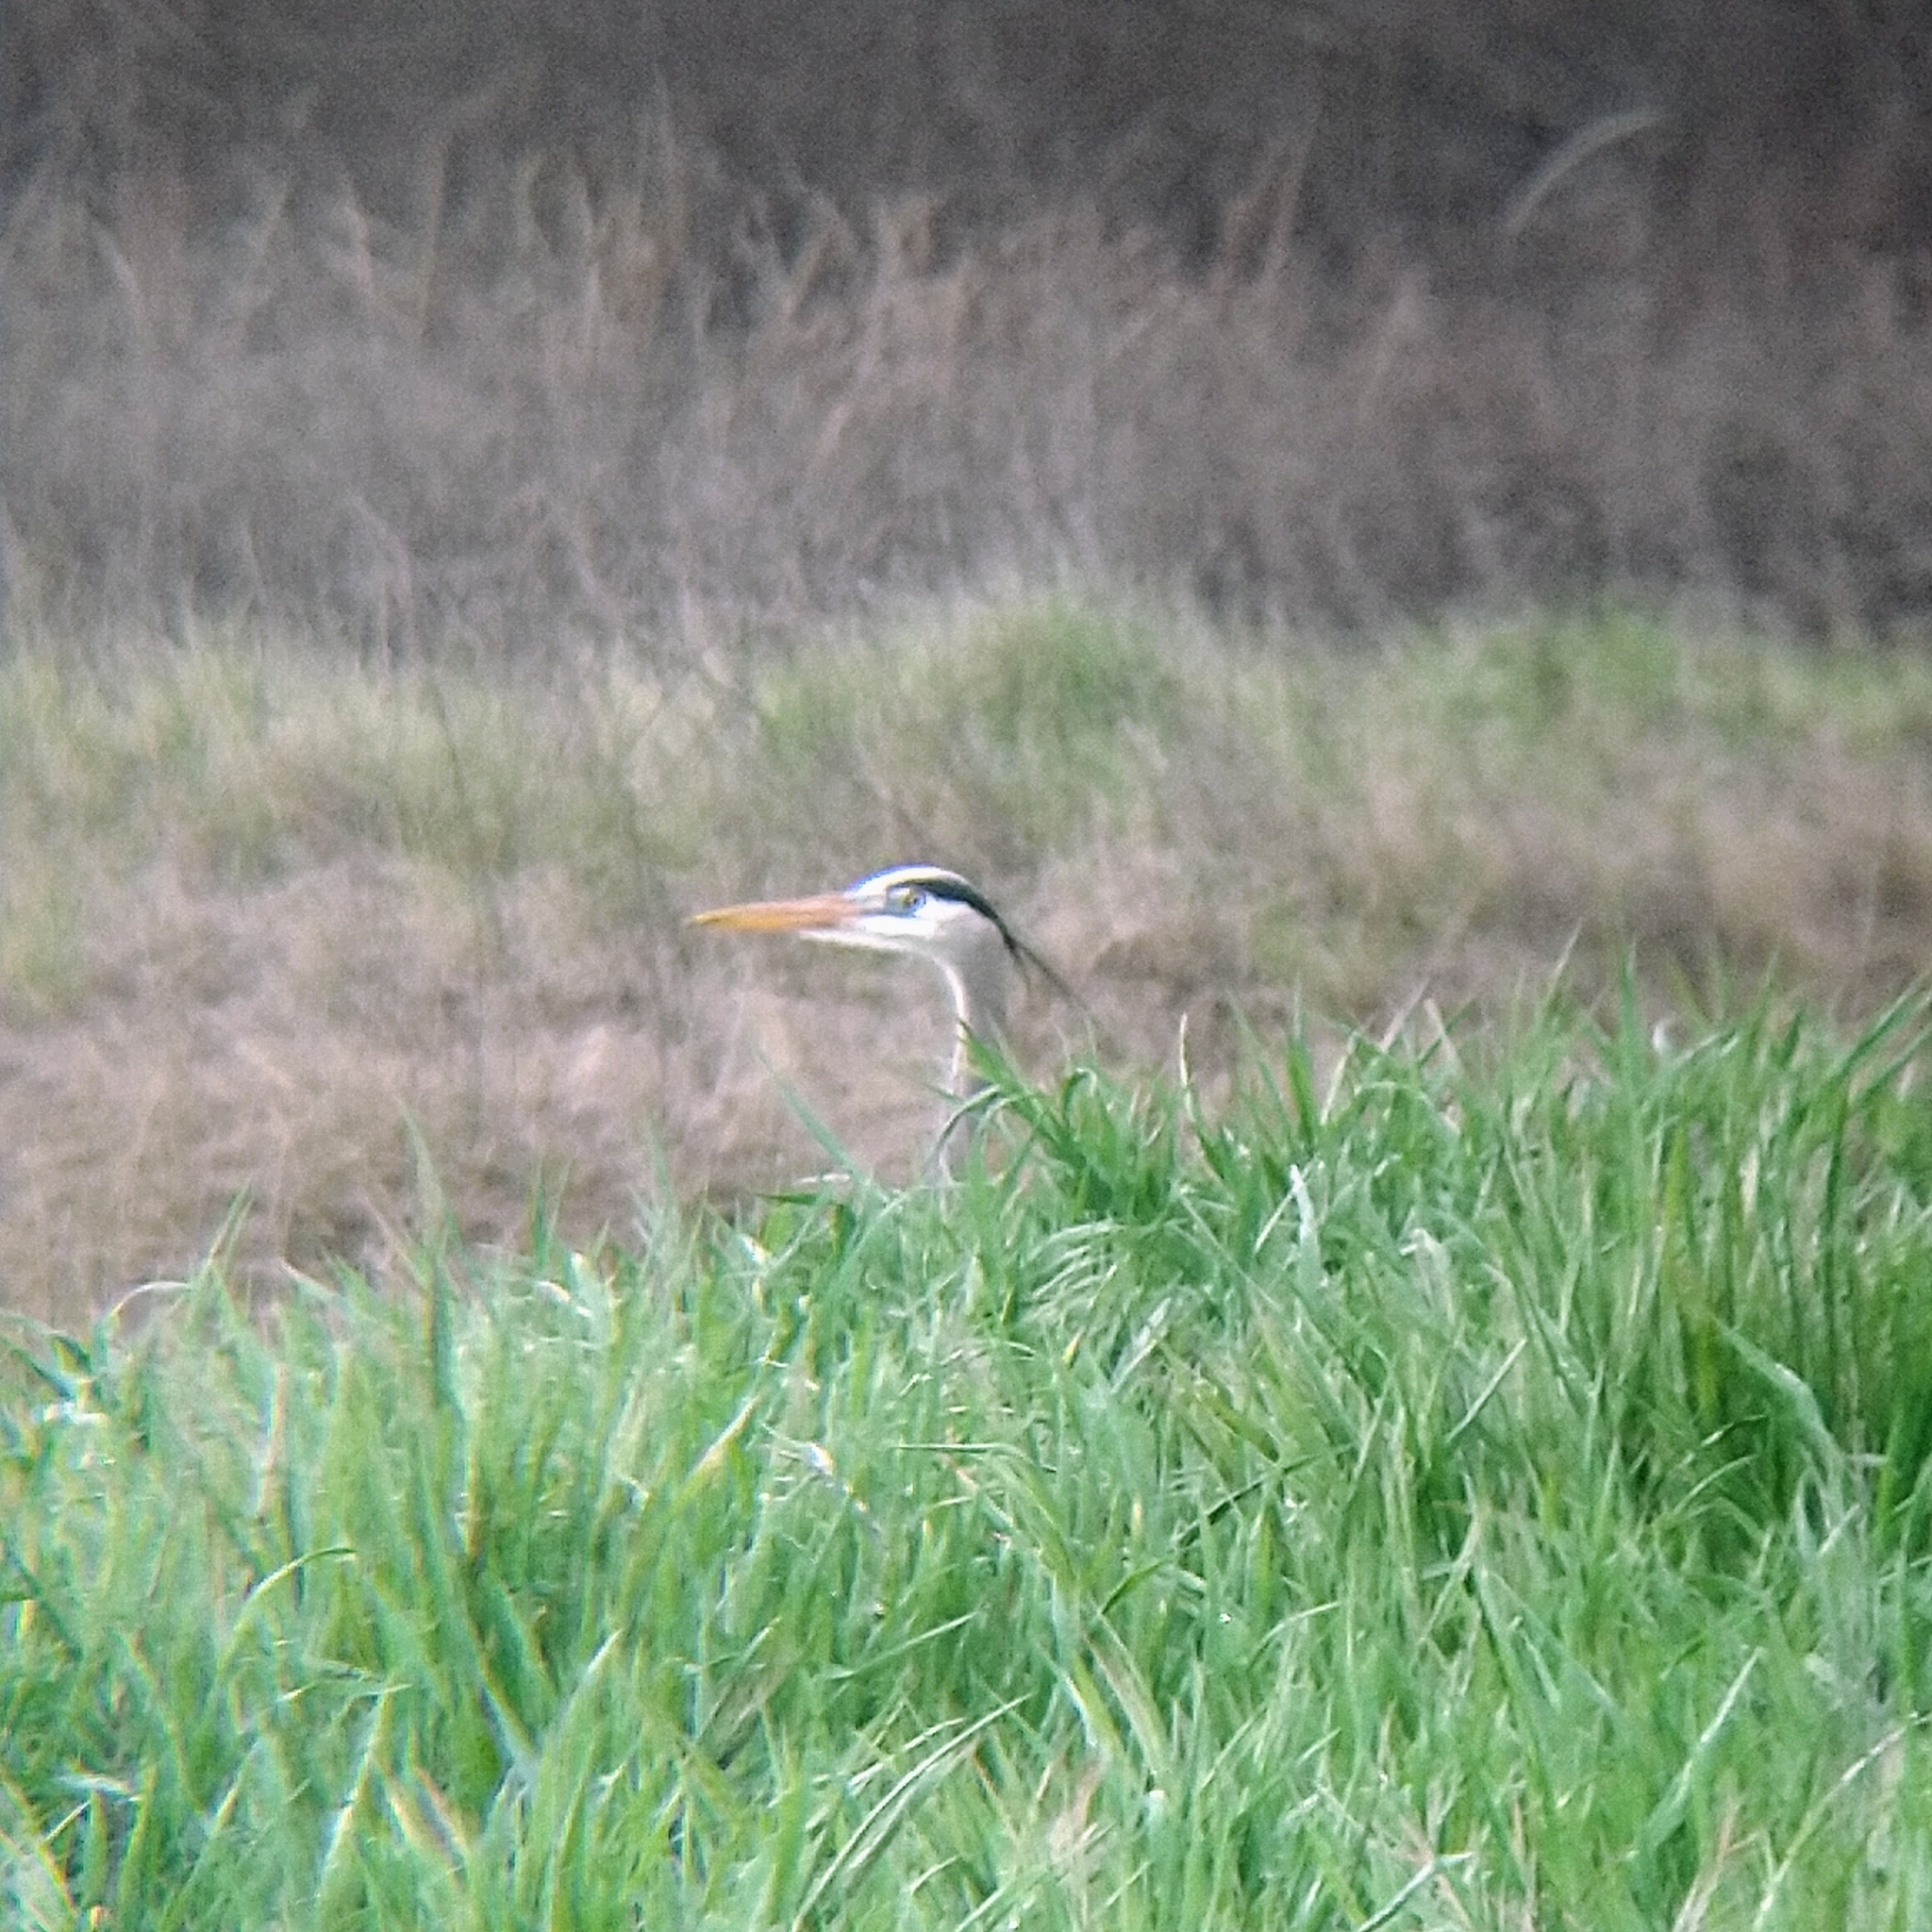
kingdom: Animalia
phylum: Chordata
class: Aves
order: Pelecaniformes
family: Ardeidae
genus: Ardea
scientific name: Ardea herodias
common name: Great blue heron
